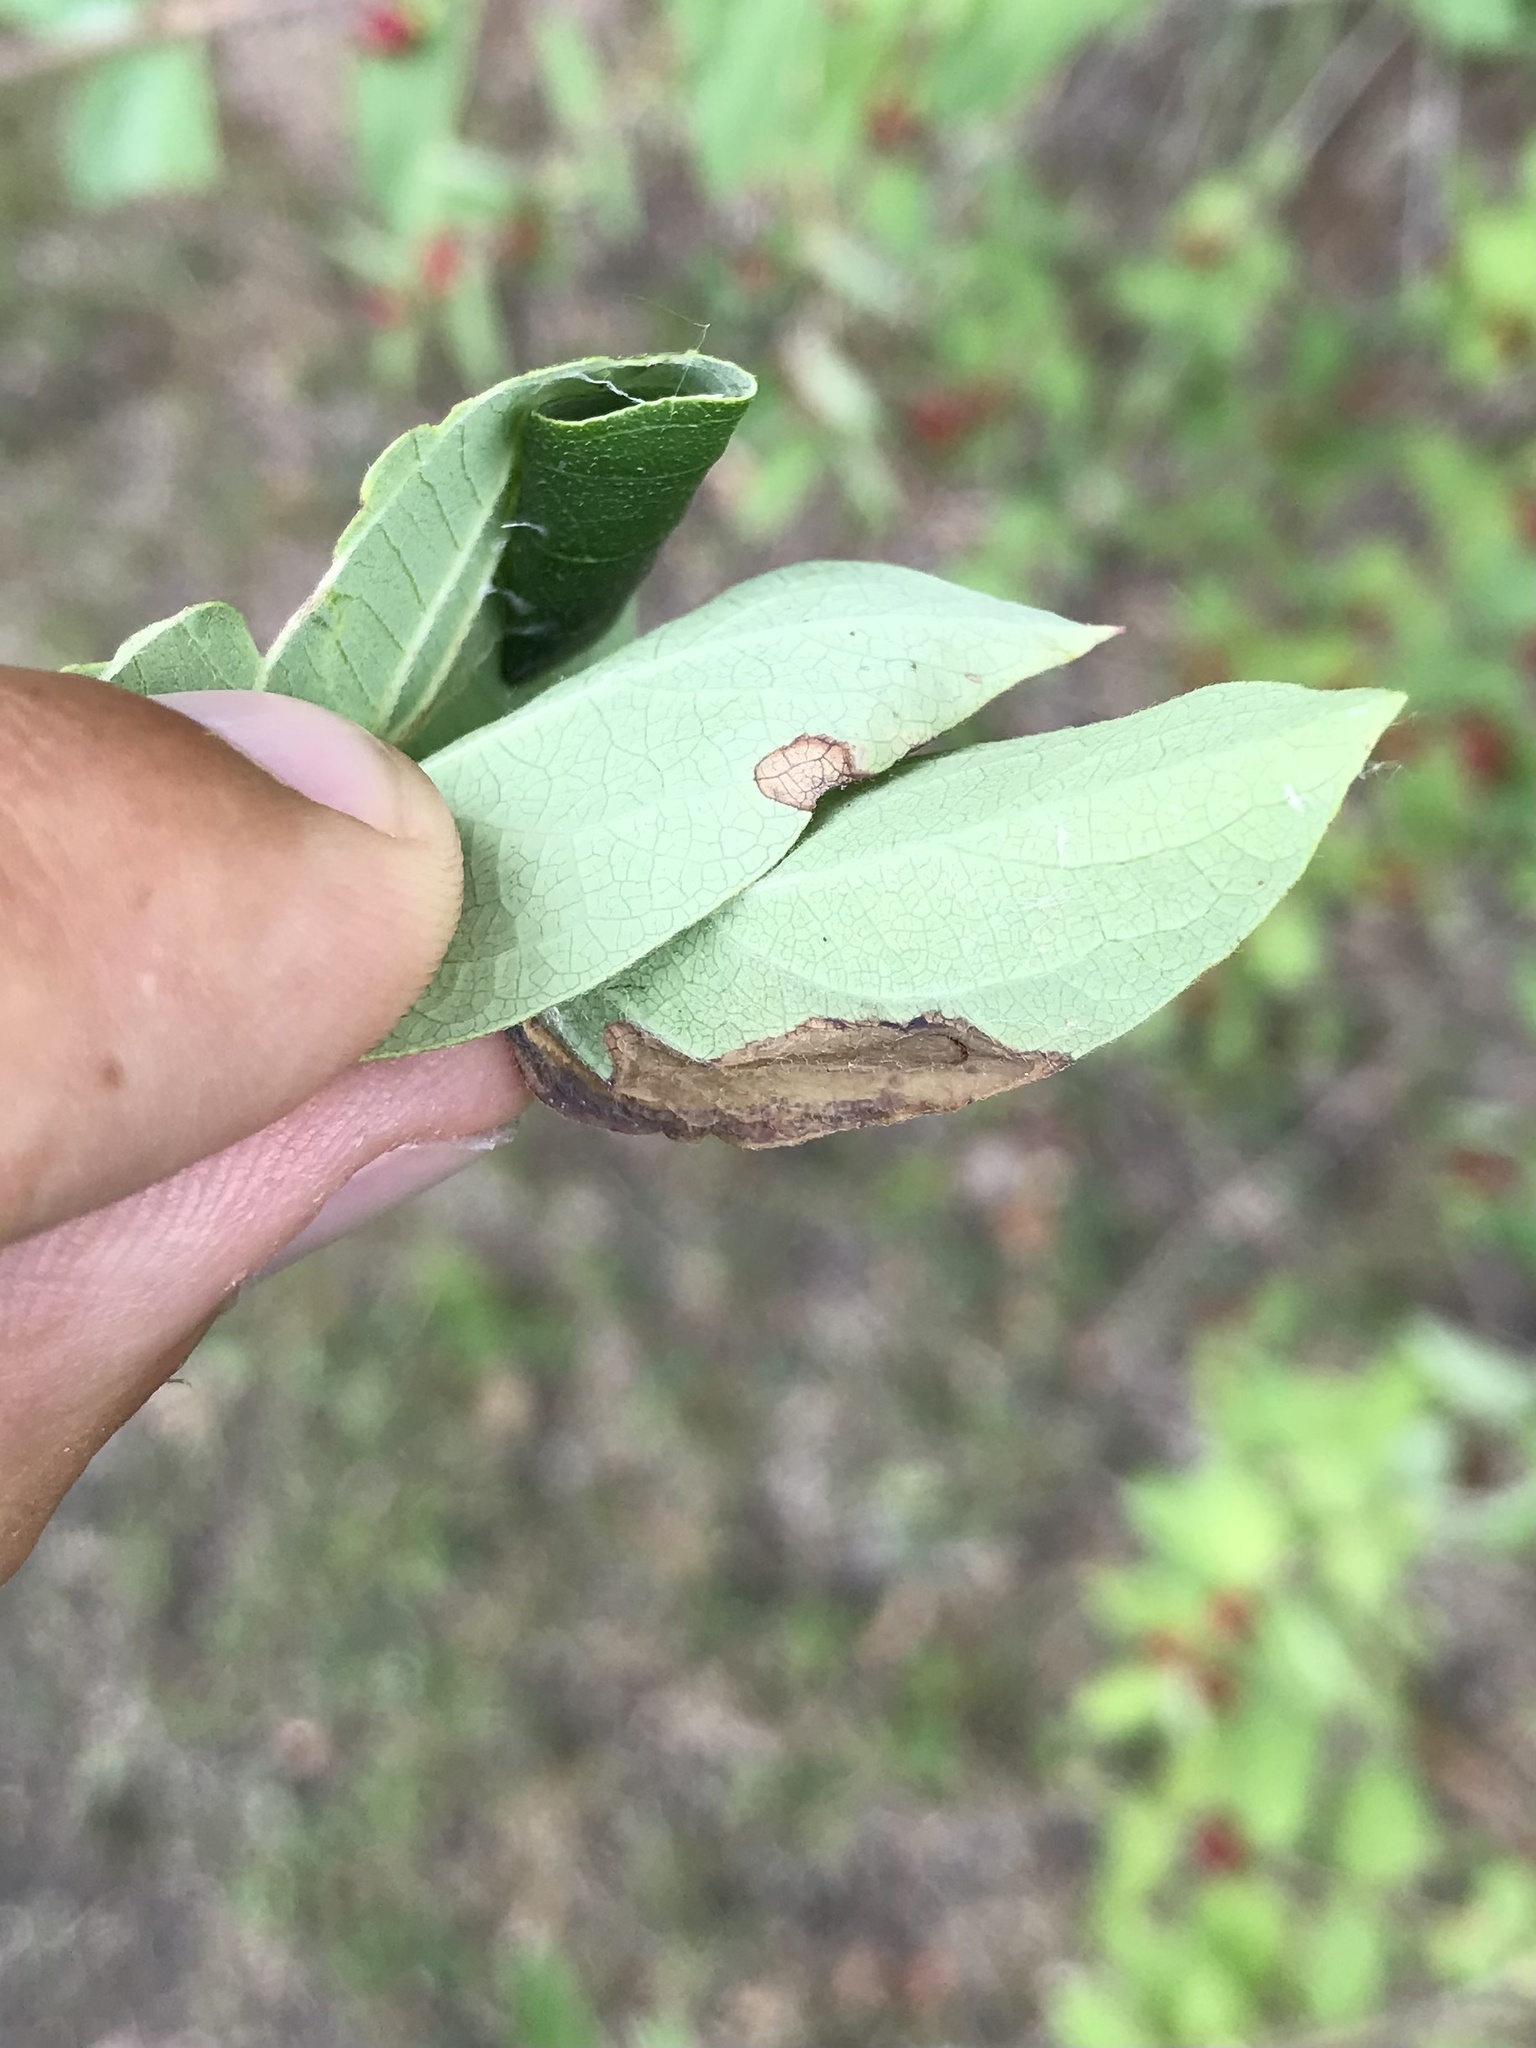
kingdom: Animalia
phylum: Arthropoda
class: Insecta
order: Lepidoptera
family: Elachistidae
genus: Perittia
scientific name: Perittia herrichiella
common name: Moth
